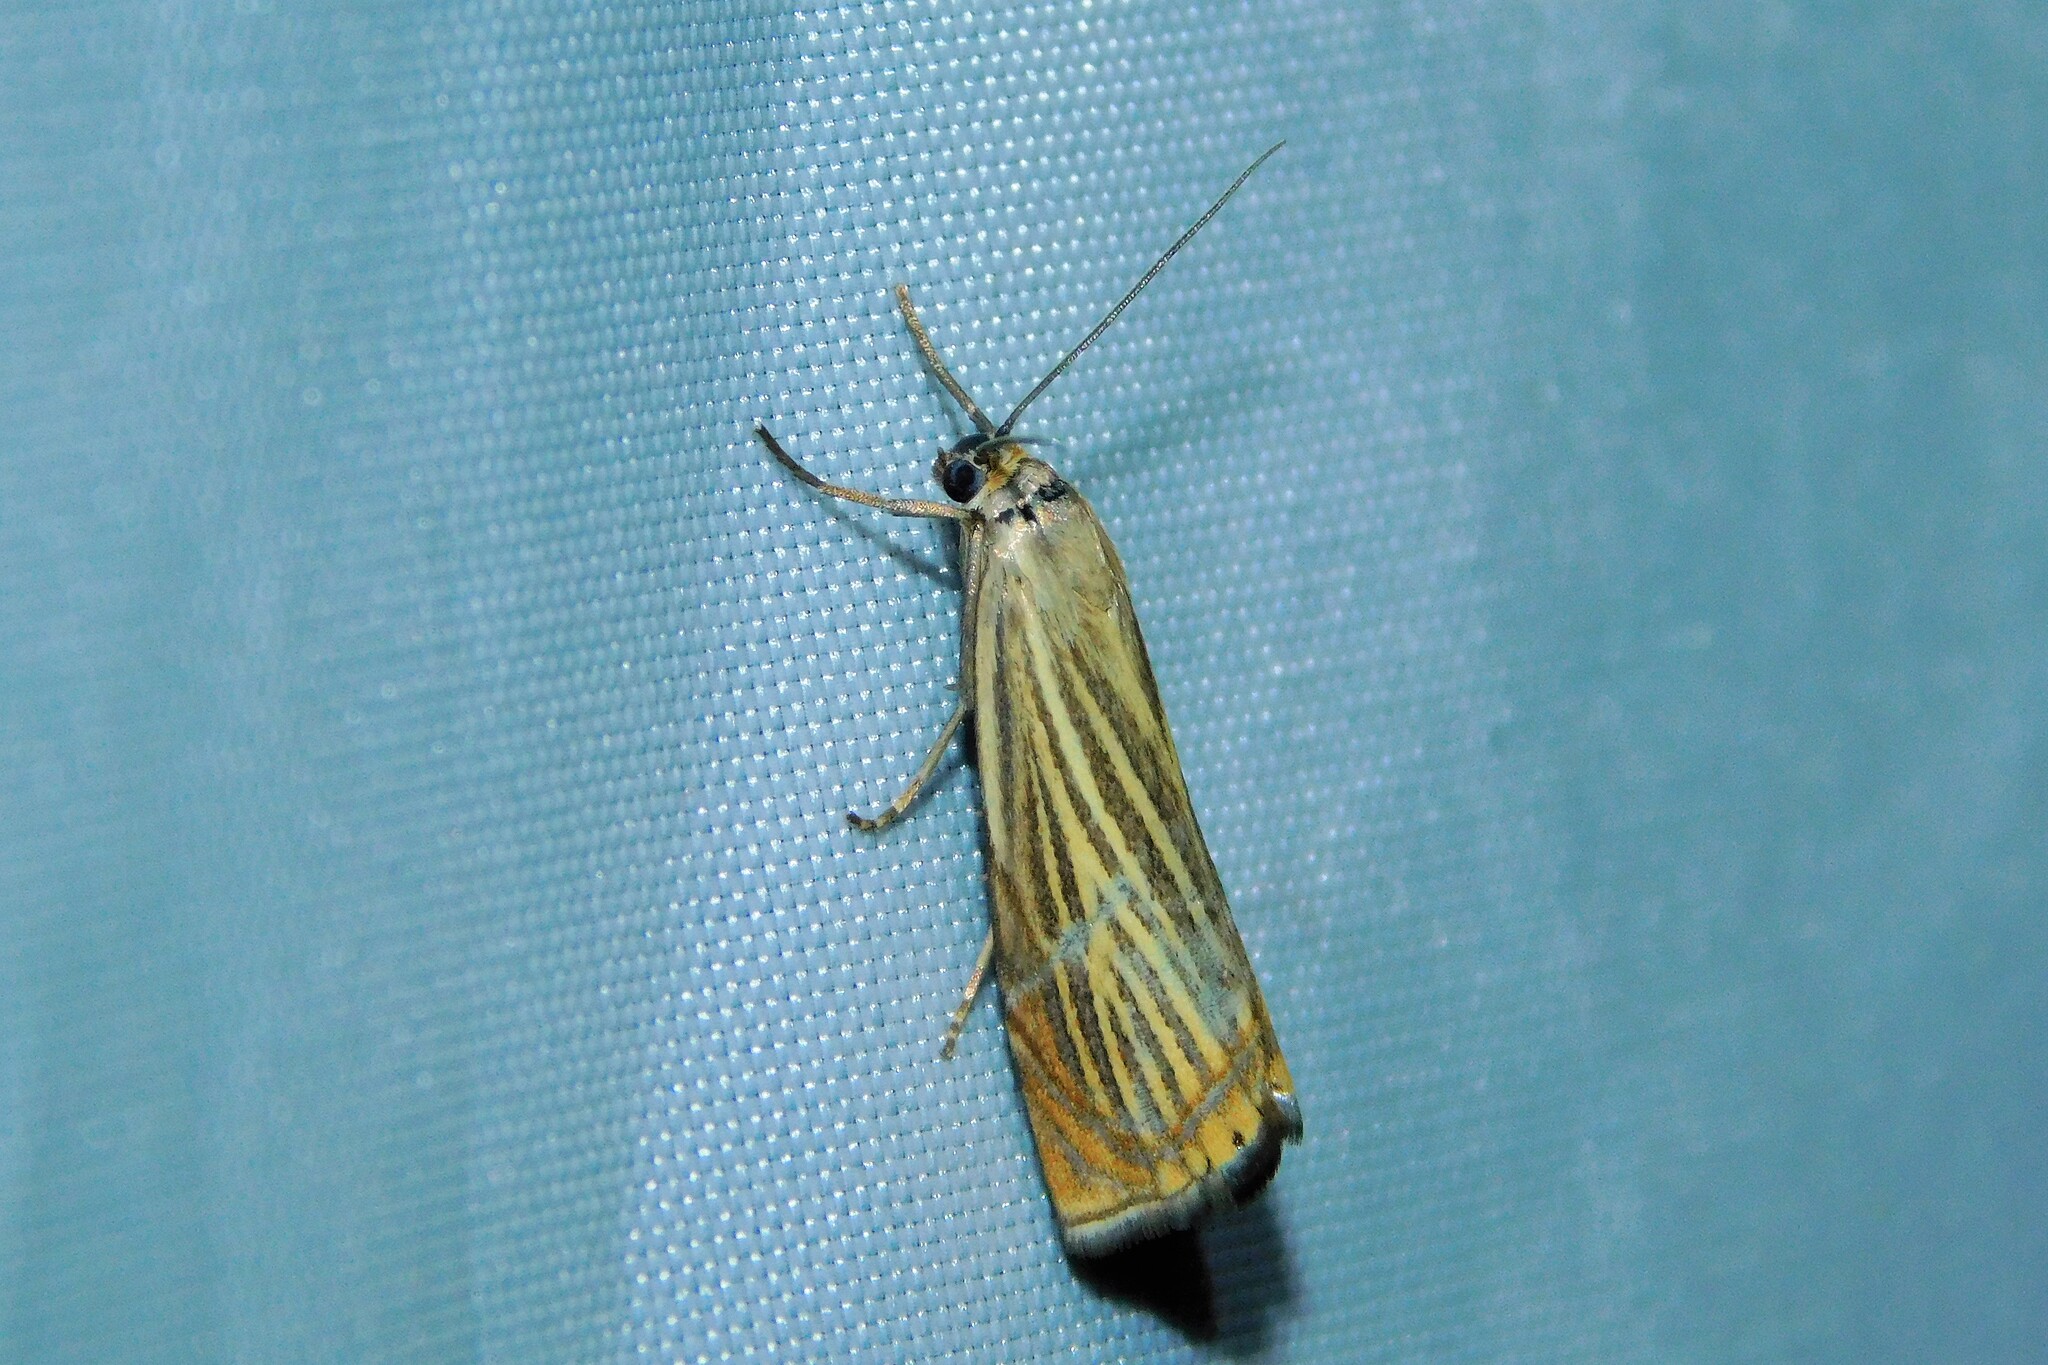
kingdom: Animalia
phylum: Arthropoda
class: Insecta
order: Lepidoptera
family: Crambidae
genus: Chrysoteuchia
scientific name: Chrysoteuchia culmella
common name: Garden grass-veneer
